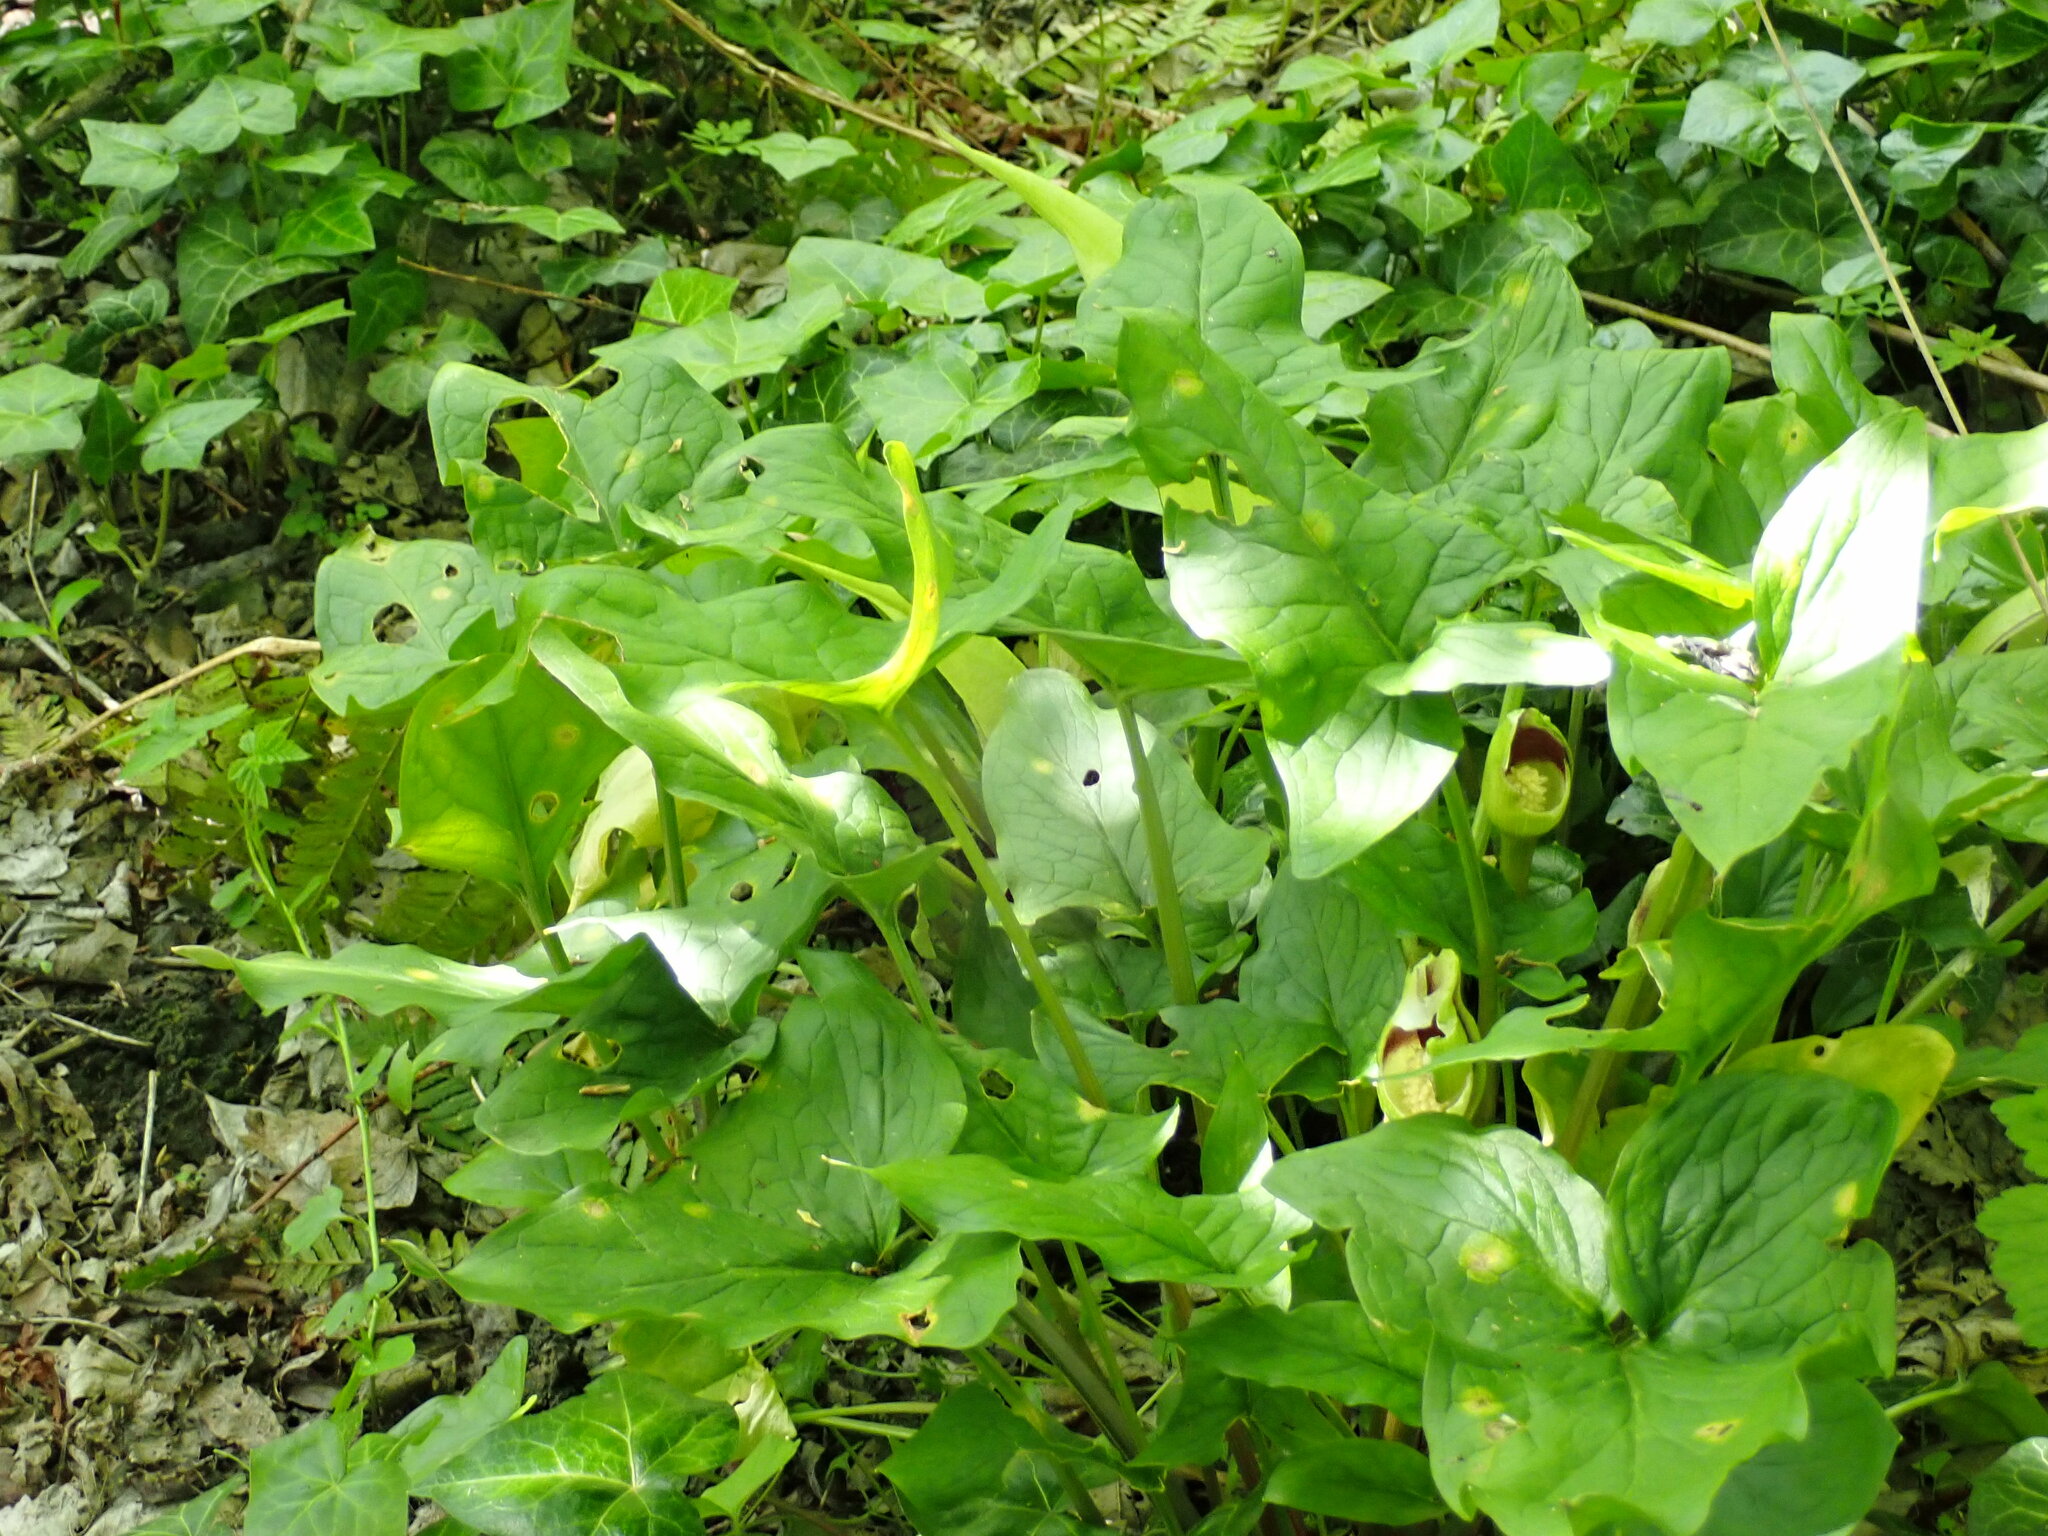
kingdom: Plantae
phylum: Tracheophyta
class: Liliopsida
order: Alismatales
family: Araceae
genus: Arum
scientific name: Arum maculatum
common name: Lords-and-ladies
